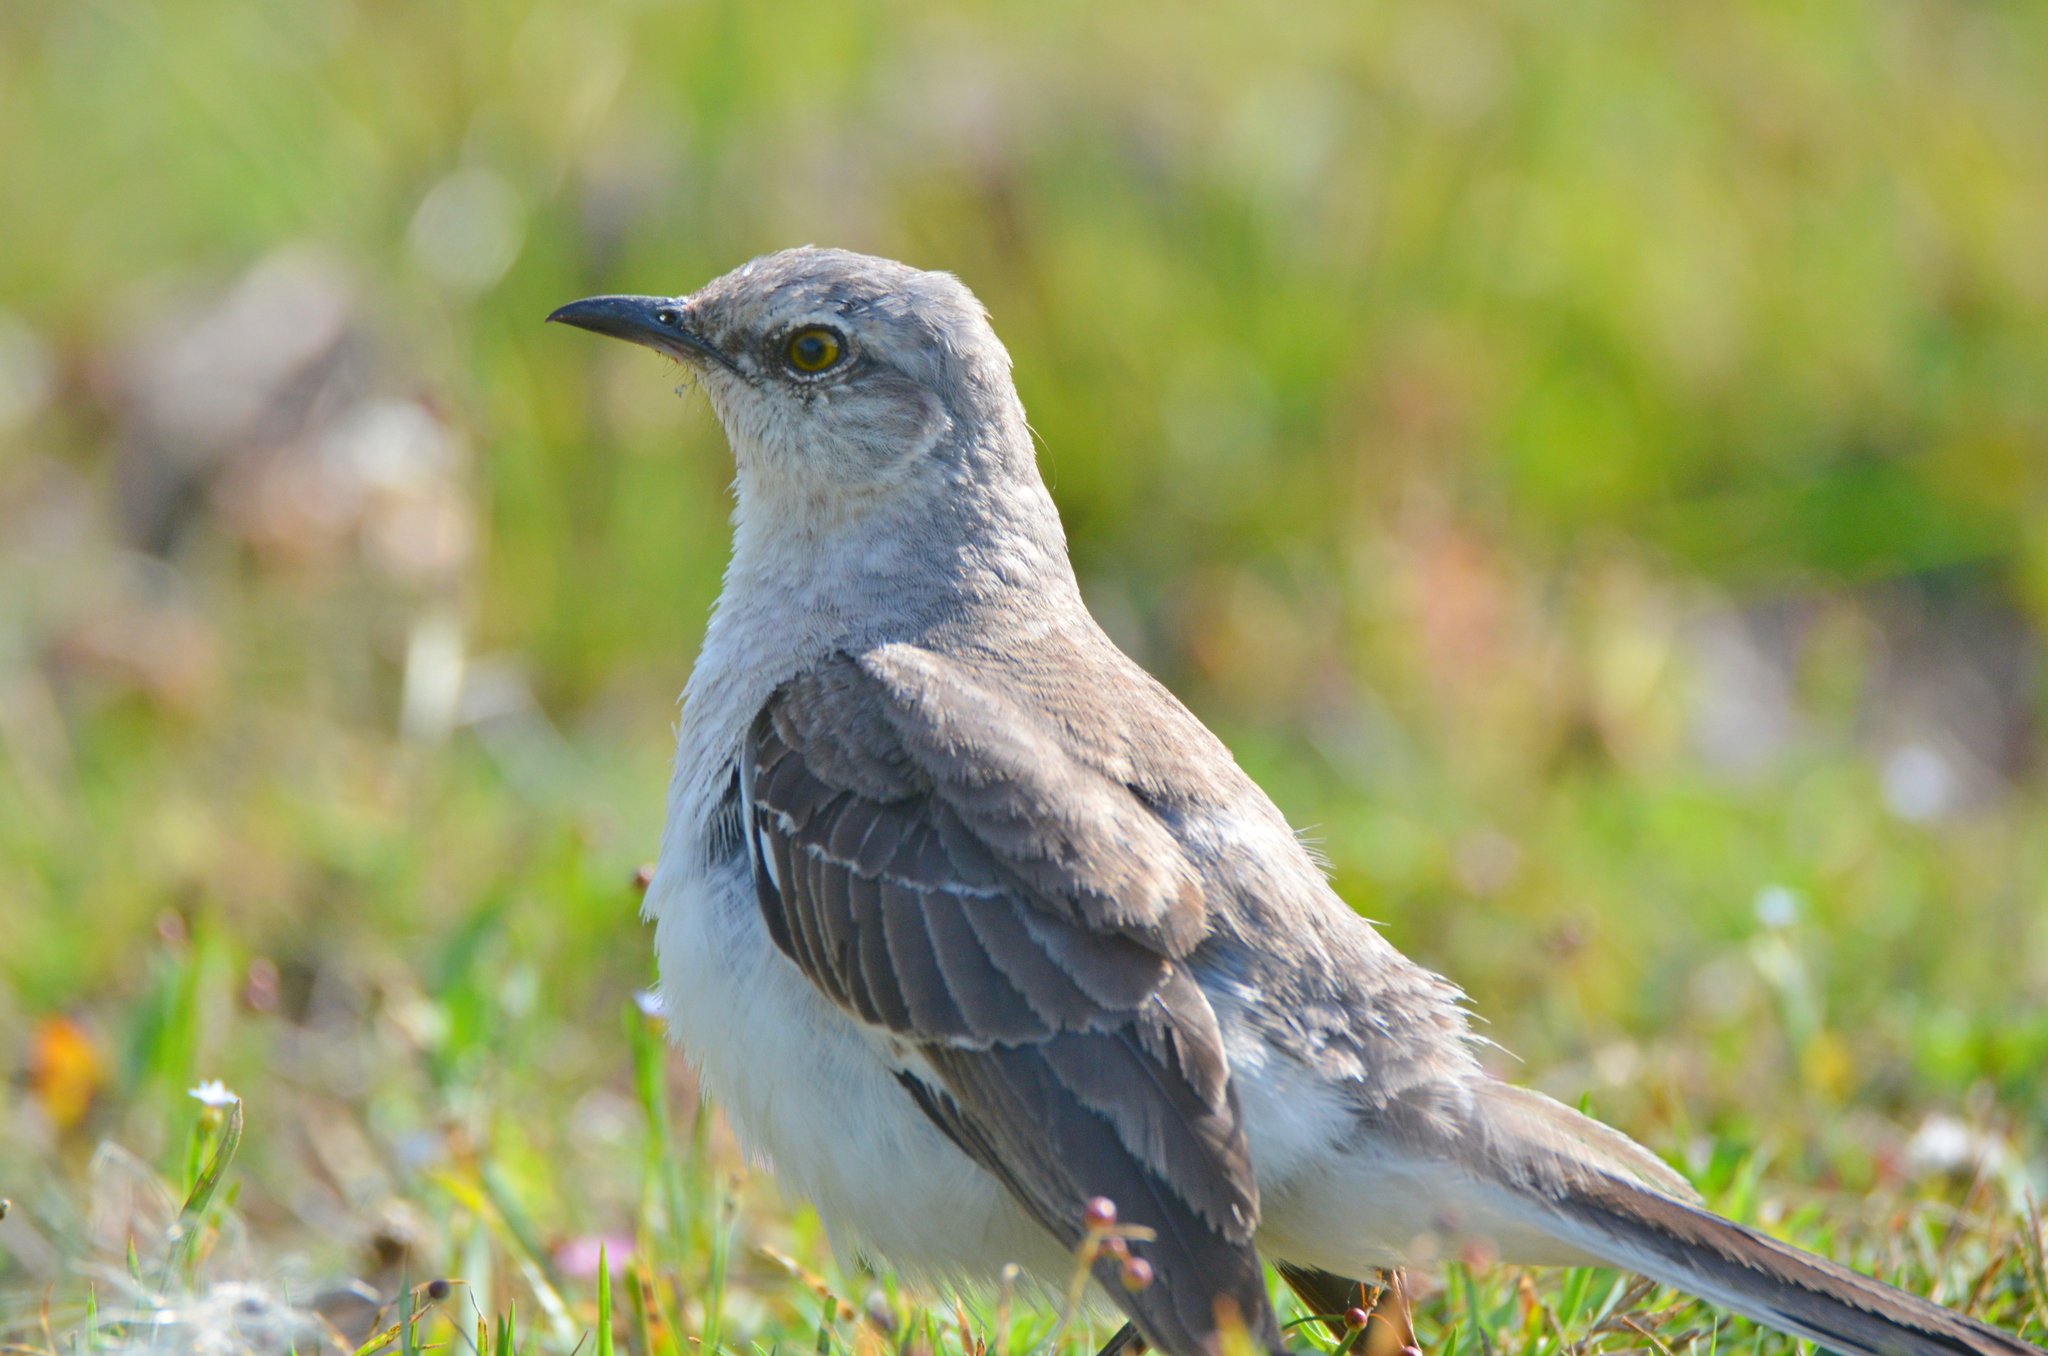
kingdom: Animalia
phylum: Chordata
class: Aves
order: Passeriformes
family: Mimidae
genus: Mimus
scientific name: Mimus polyglottos
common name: Northern mockingbird
